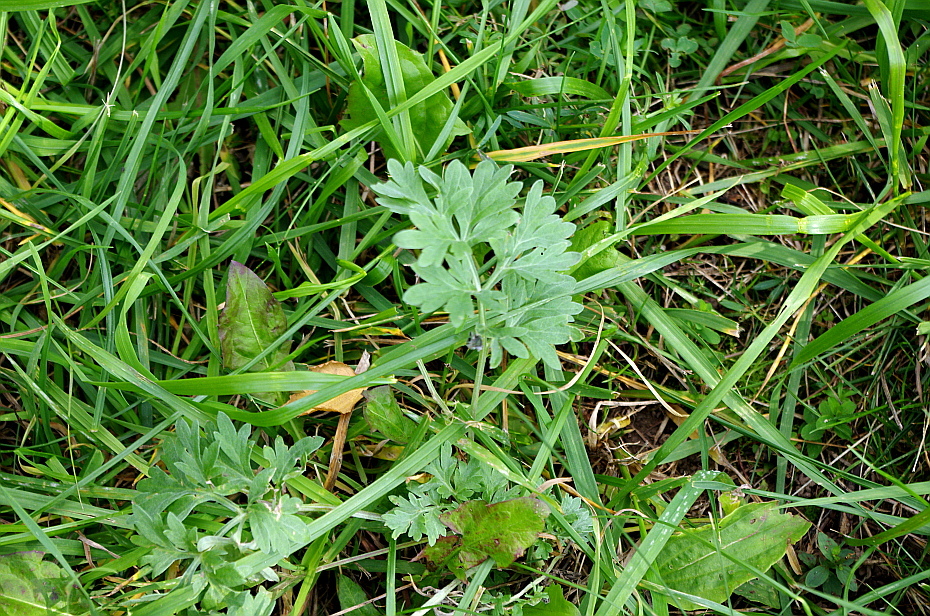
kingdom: Plantae
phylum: Tracheophyta
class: Magnoliopsida
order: Asterales
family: Asteraceae
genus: Artemisia
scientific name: Artemisia absinthium
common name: Wormwood
